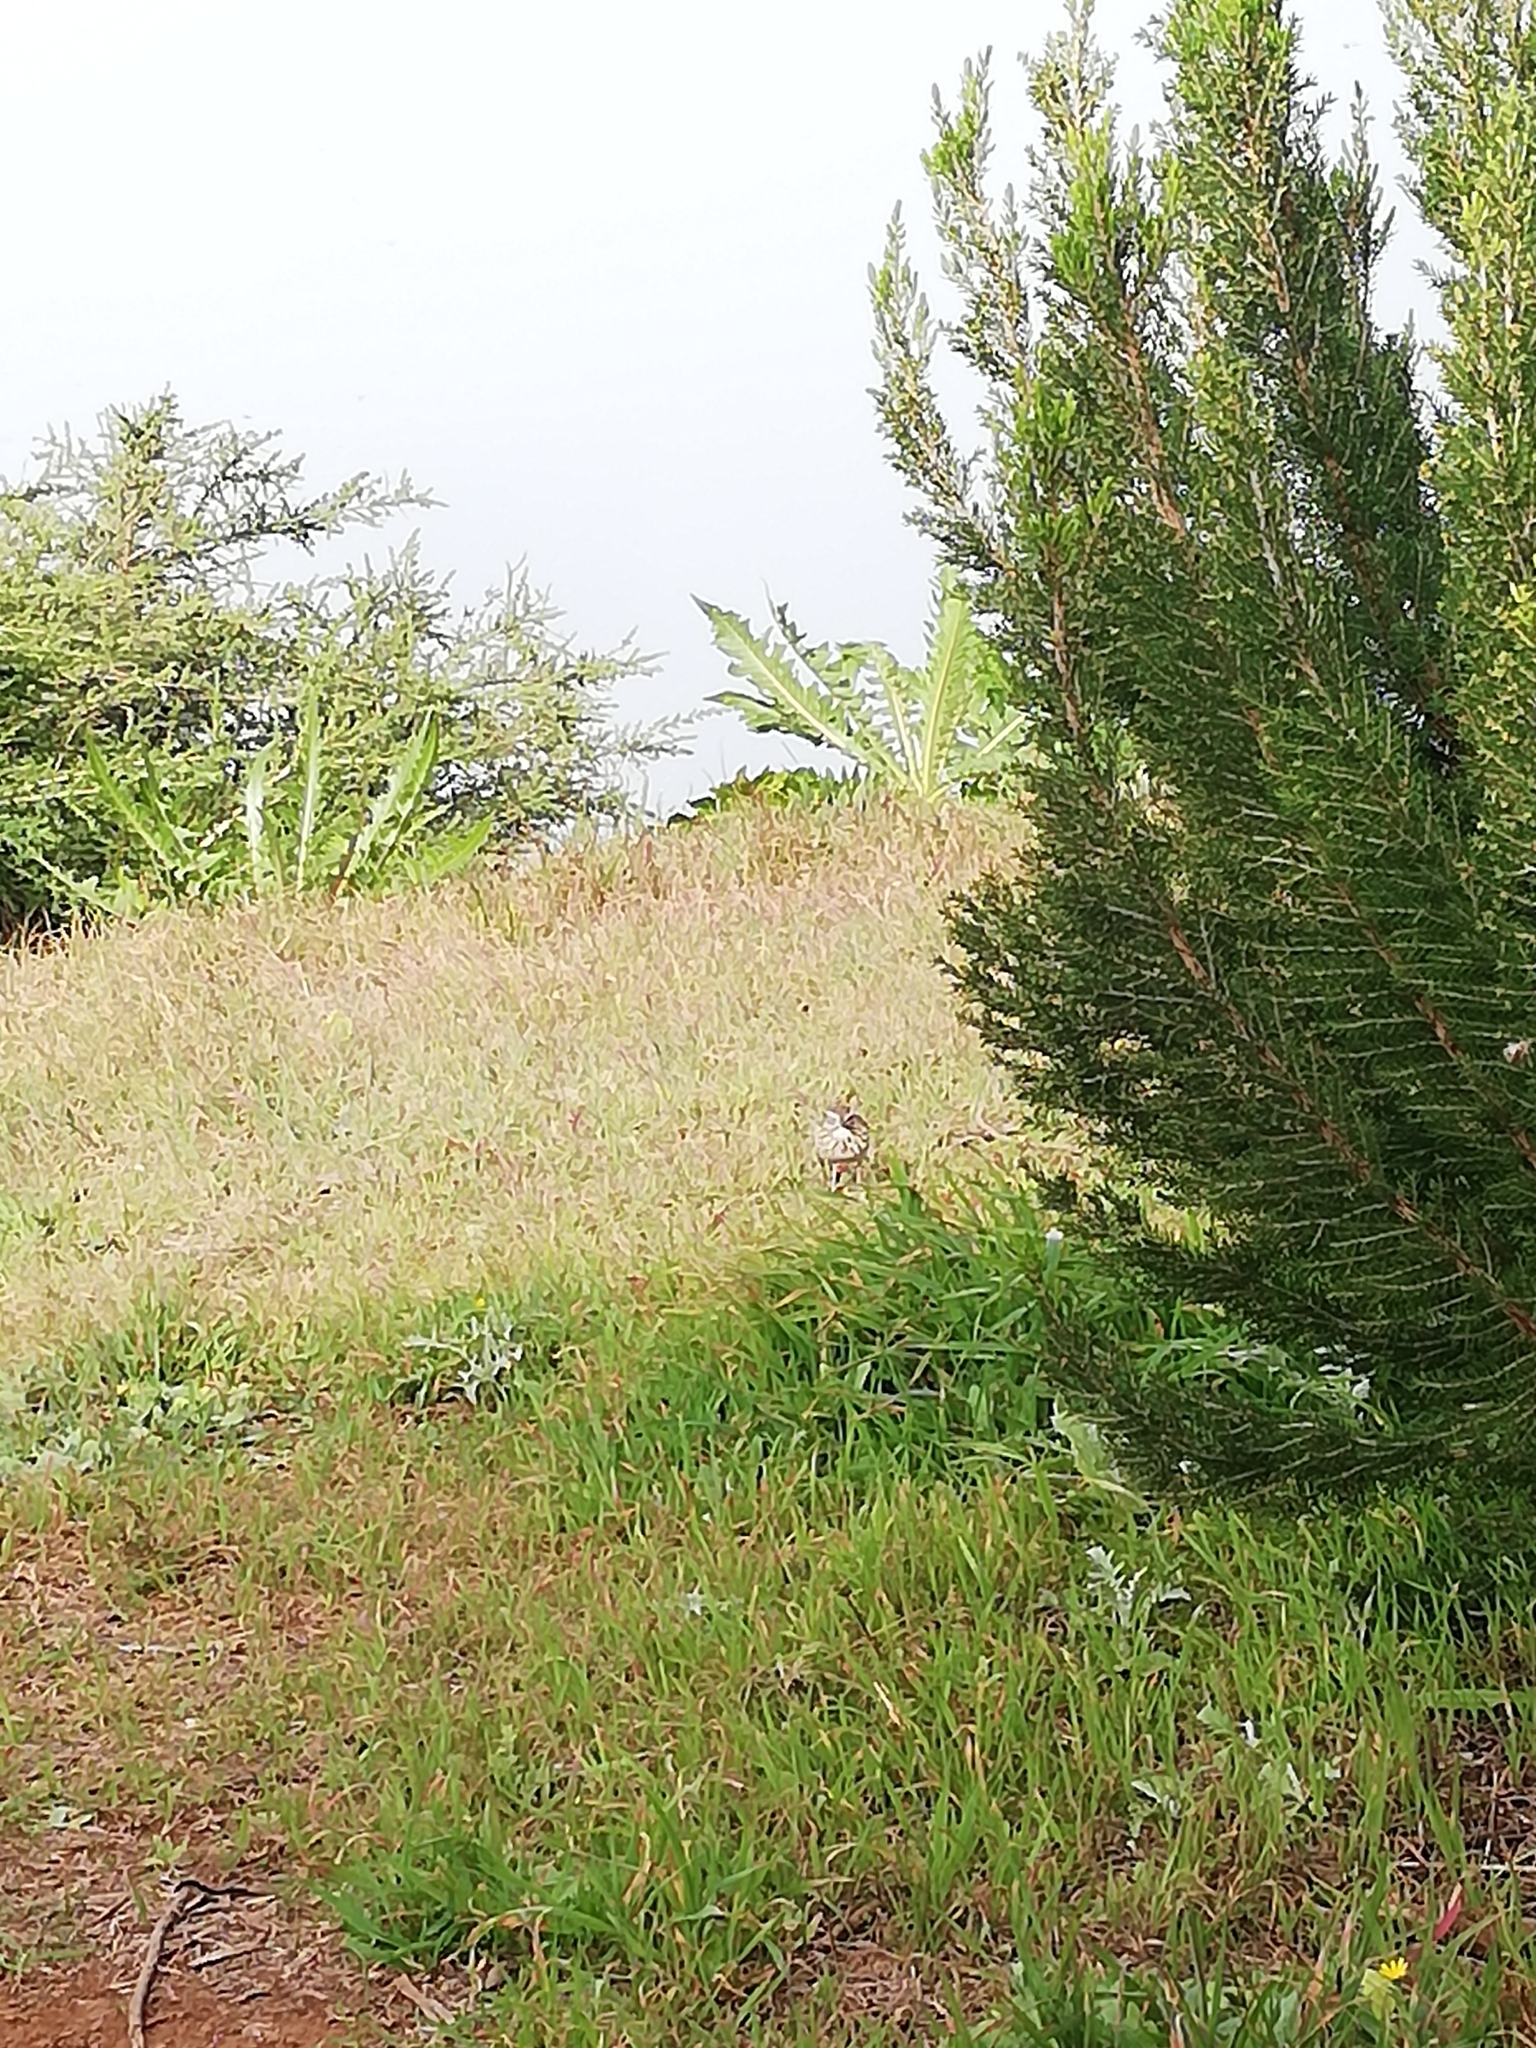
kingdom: Animalia
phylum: Chordata
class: Aves
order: Passeriformes
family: Motacillidae
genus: Anthus
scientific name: Anthus berthelotii
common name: Berthelot's pipit
